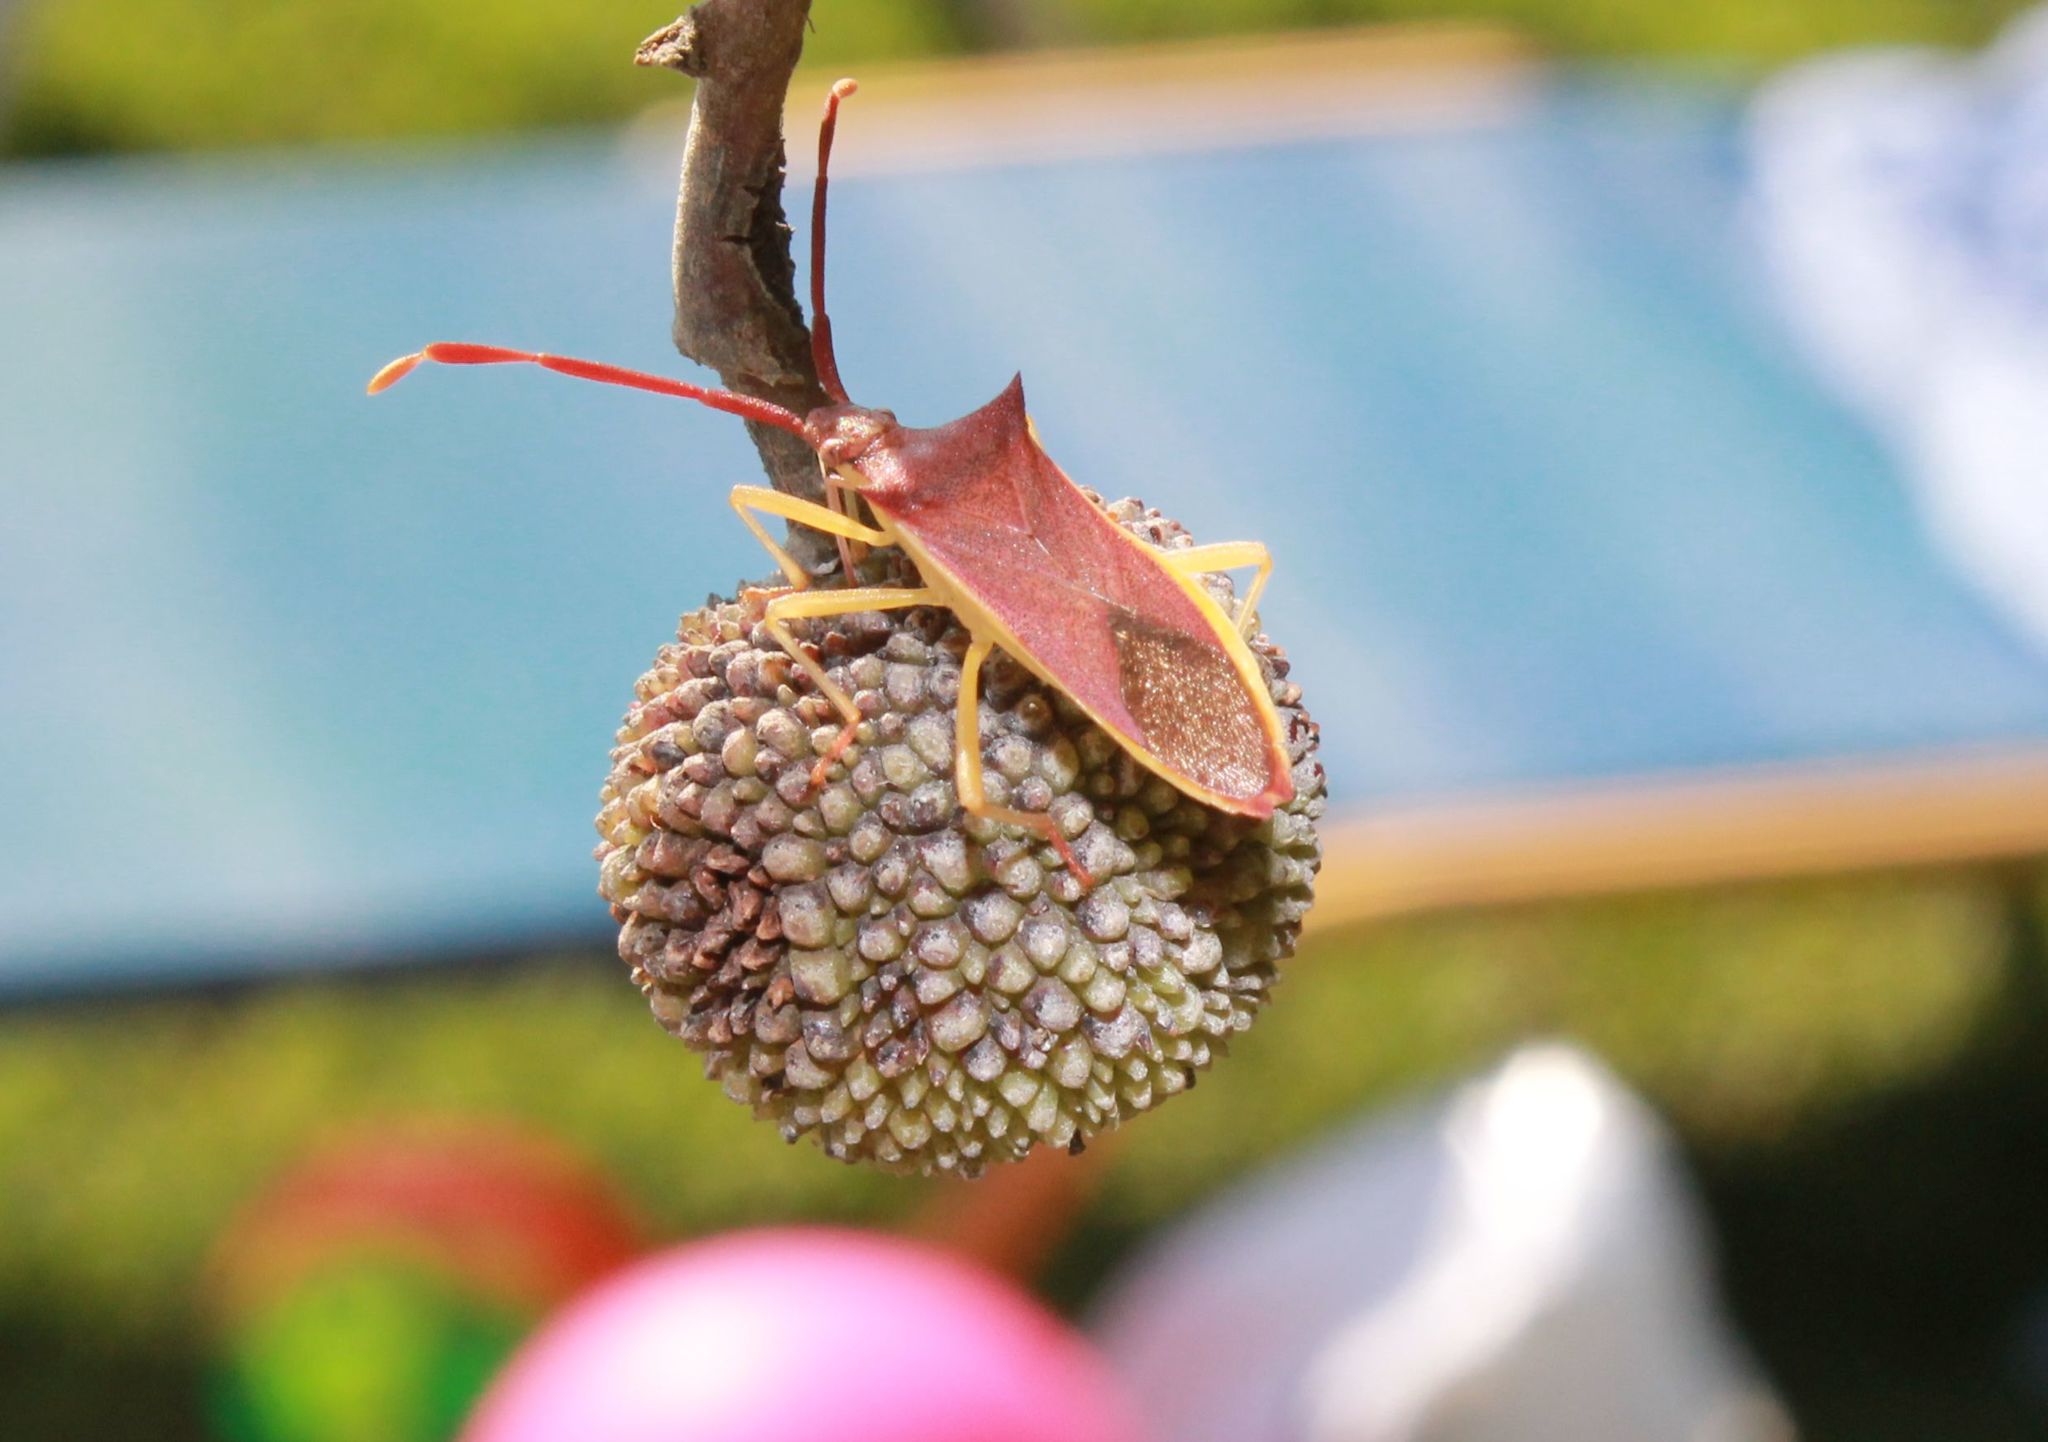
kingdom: Animalia
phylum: Arthropoda
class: Insecta
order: Hemiptera
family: Coreidae
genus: Gonocerus
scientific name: Gonocerus insidiator
